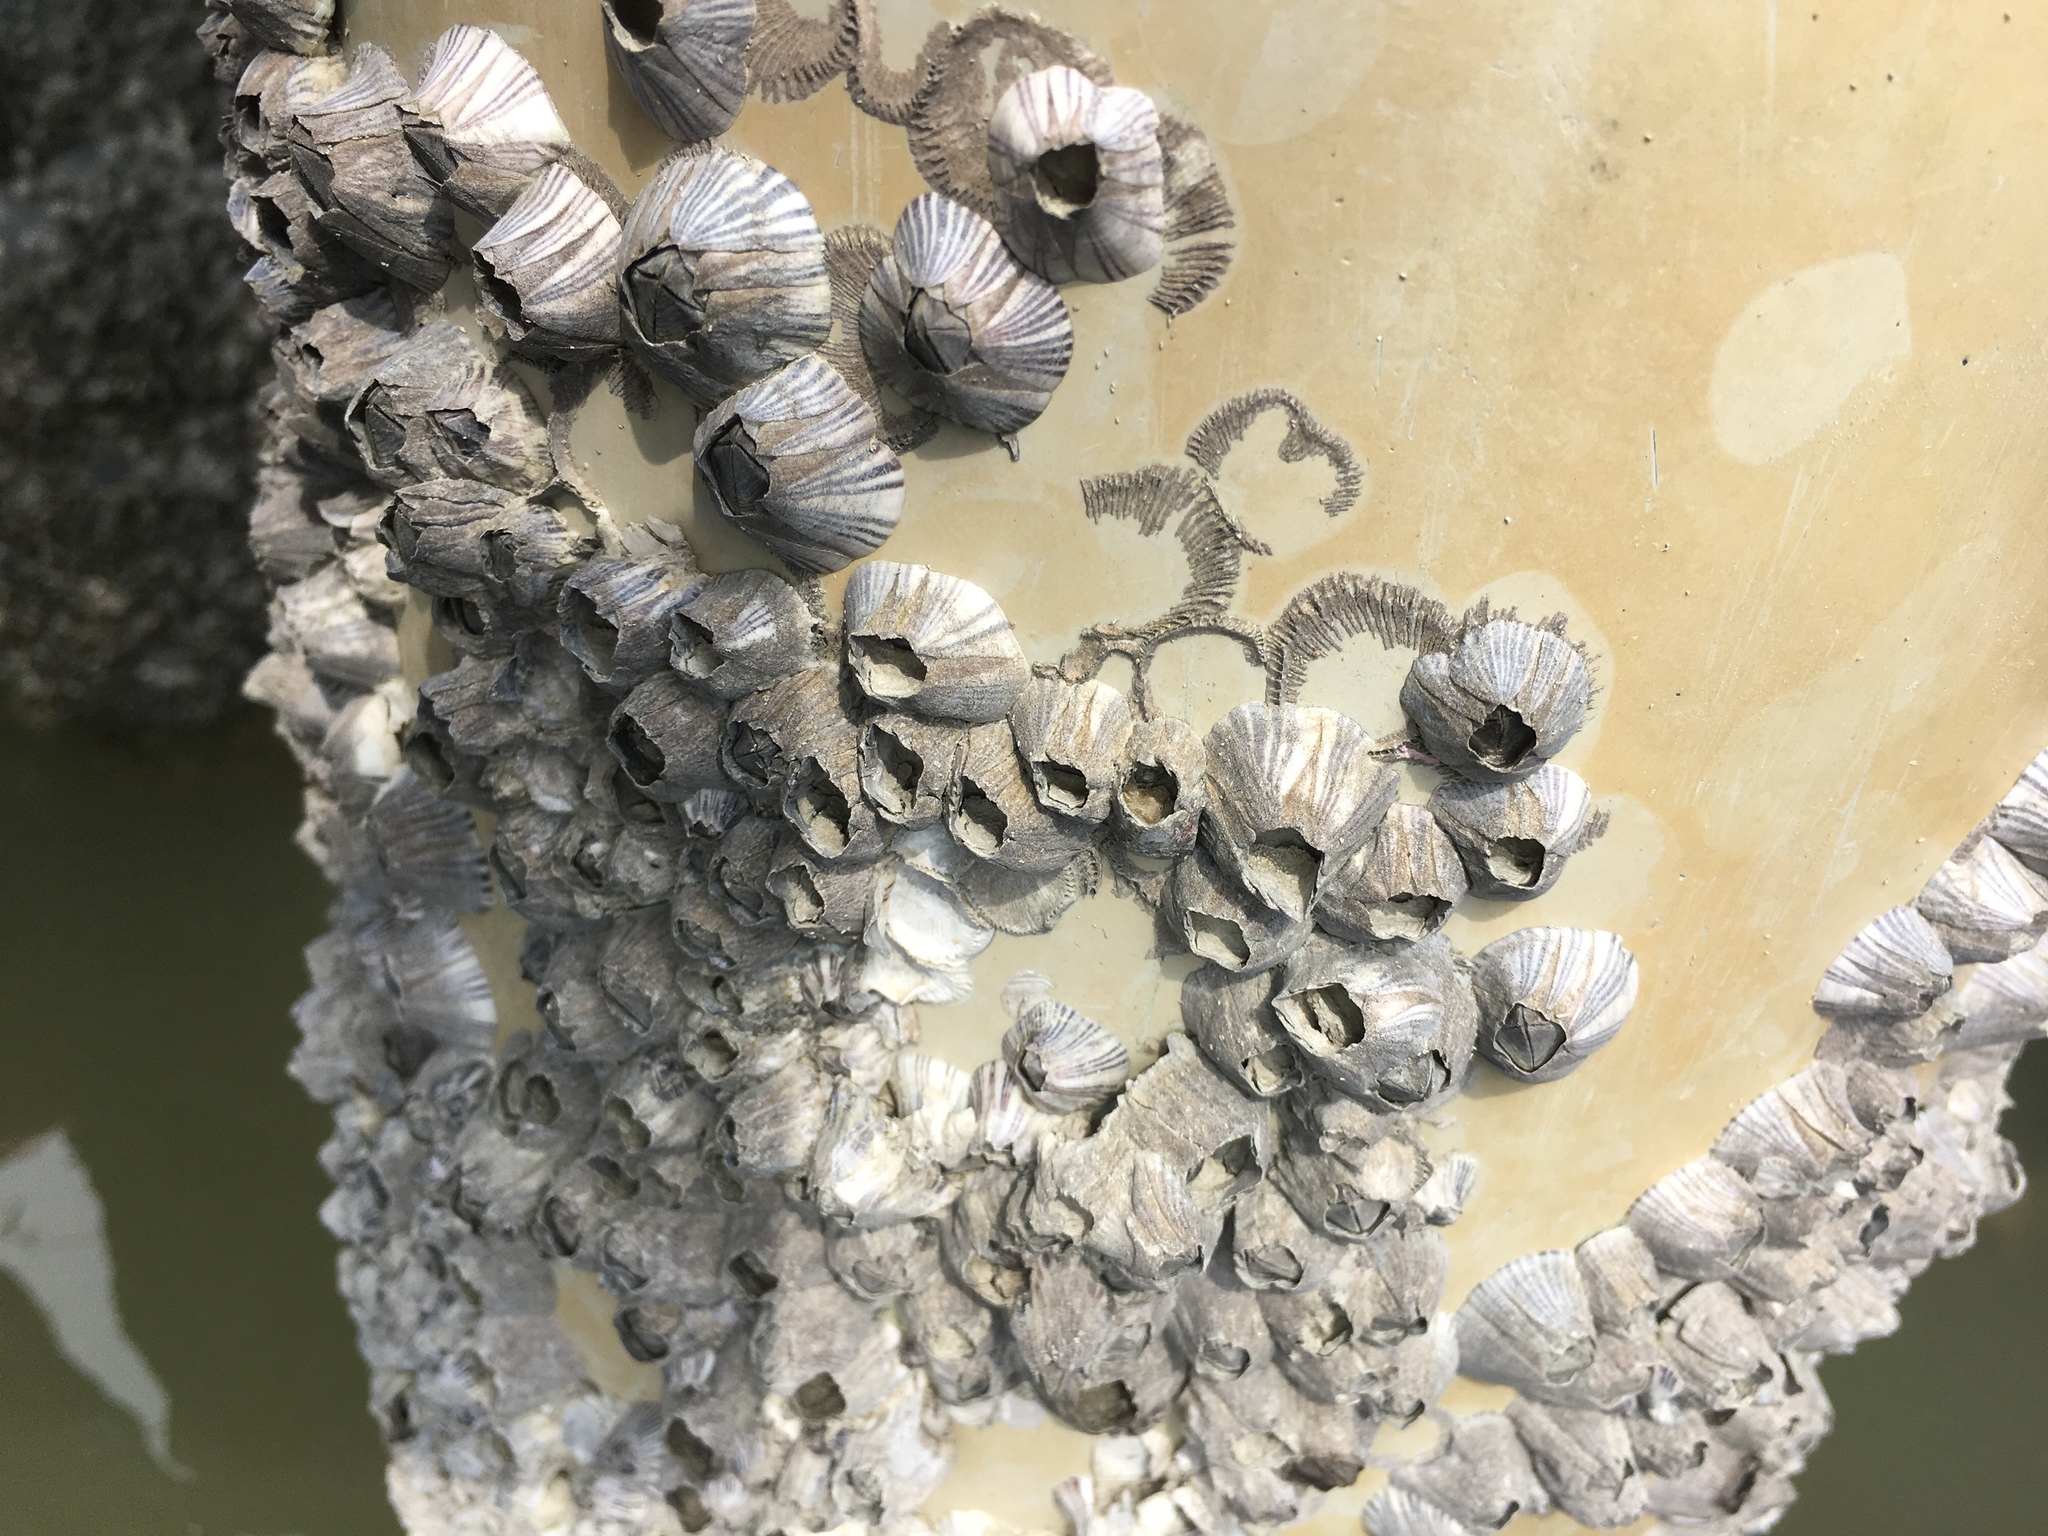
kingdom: Animalia
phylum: Arthropoda
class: Maxillopoda
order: Sessilia
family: Balanidae
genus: Amphibalanus
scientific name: Amphibalanus amphitrite
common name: Striped acorn barnacle
